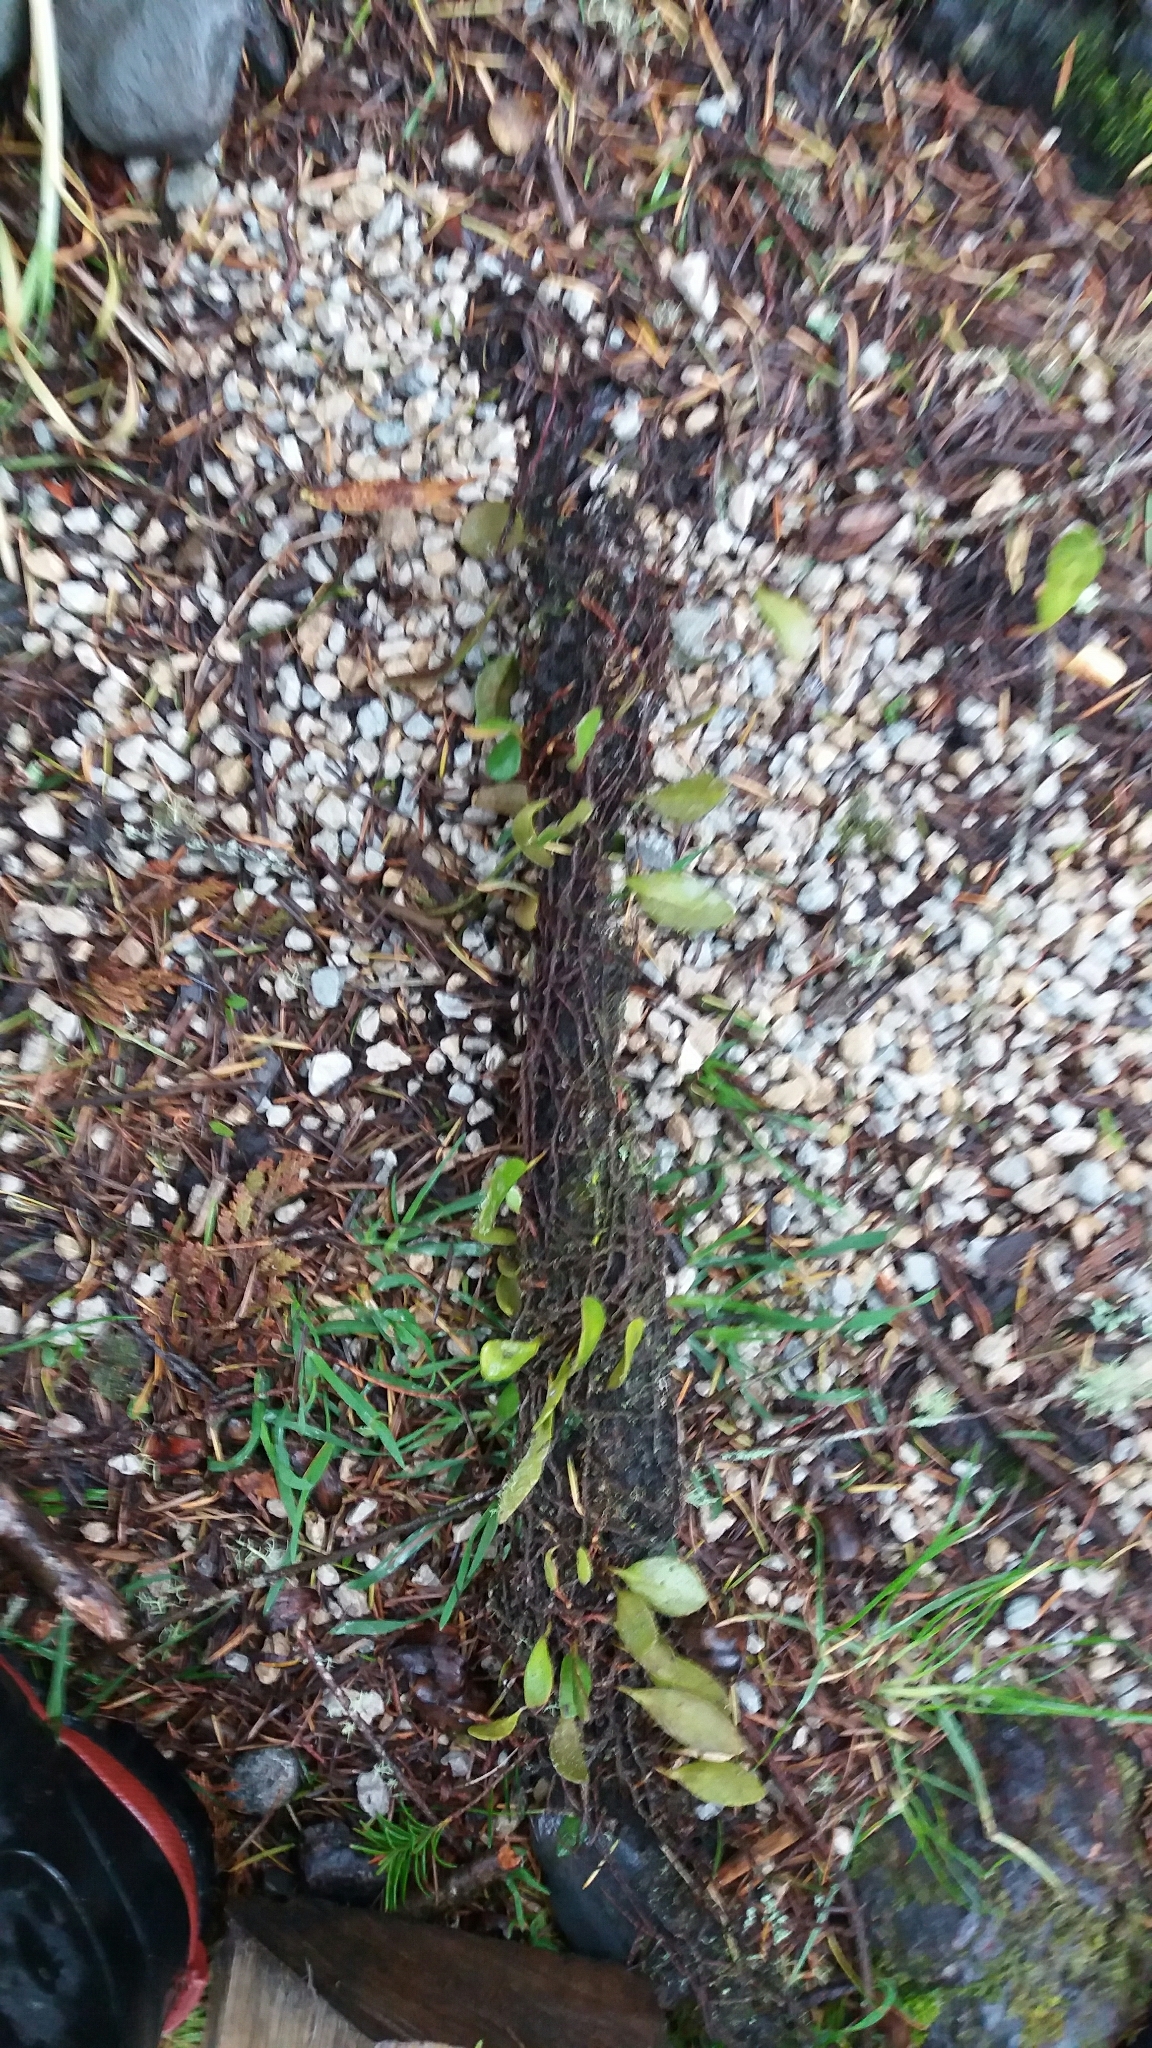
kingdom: Plantae
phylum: Tracheophyta
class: Polypodiopsida
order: Polypodiales
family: Polypodiaceae
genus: Pyrrosia
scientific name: Pyrrosia eleagnifolia
